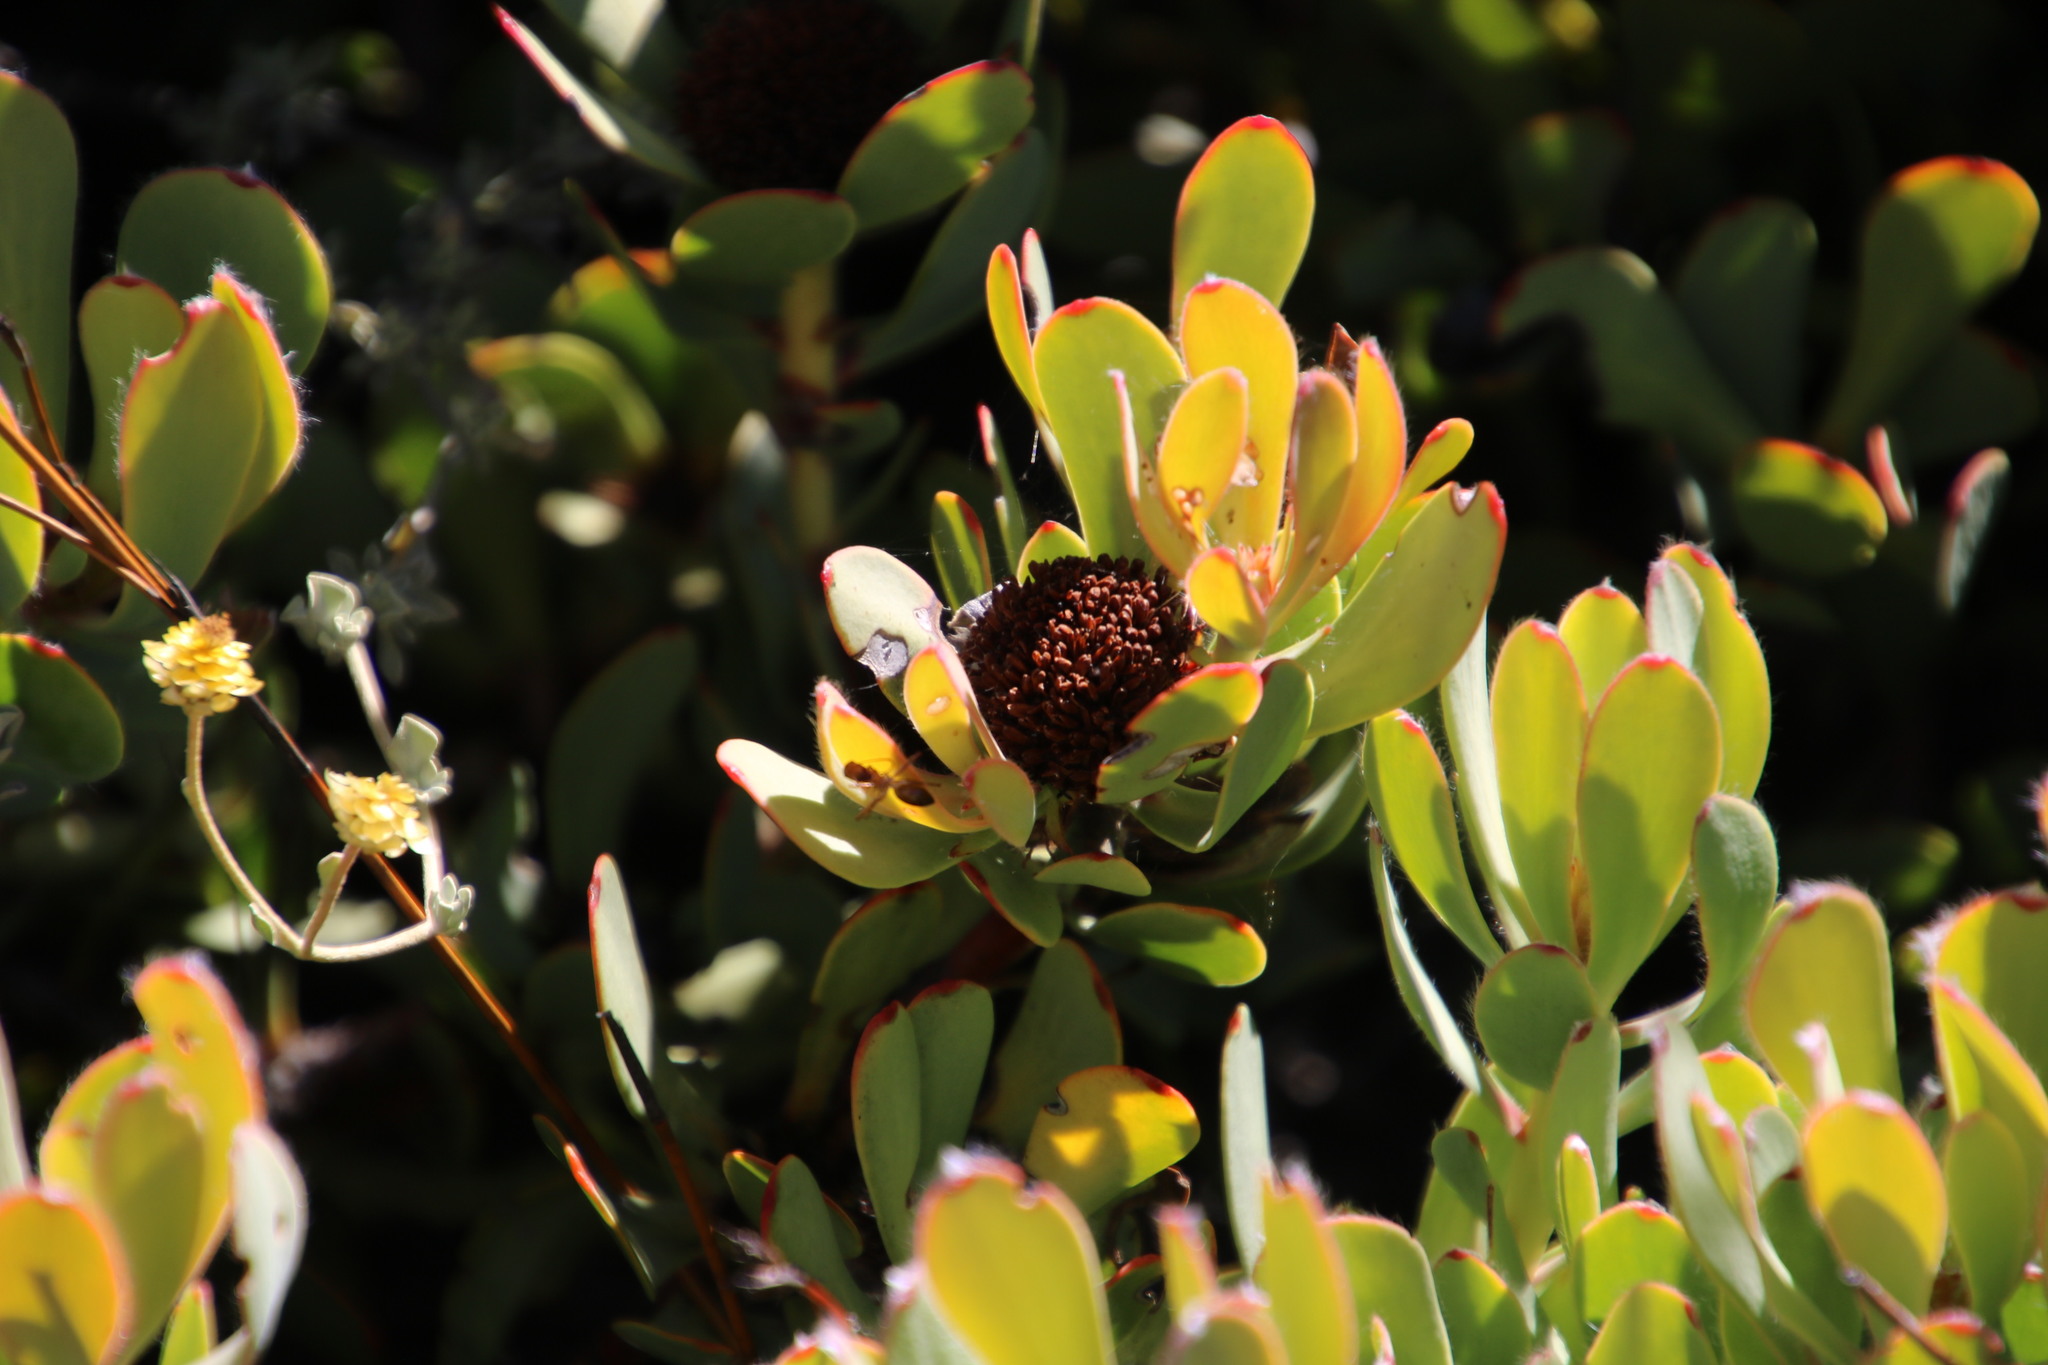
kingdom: Plantae
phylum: Tracheophyta
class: Magnoliopsida
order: Proteales
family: Proteaceae
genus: Leucadendron
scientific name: Leucadendron arcuatum
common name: Red-edge conebush
